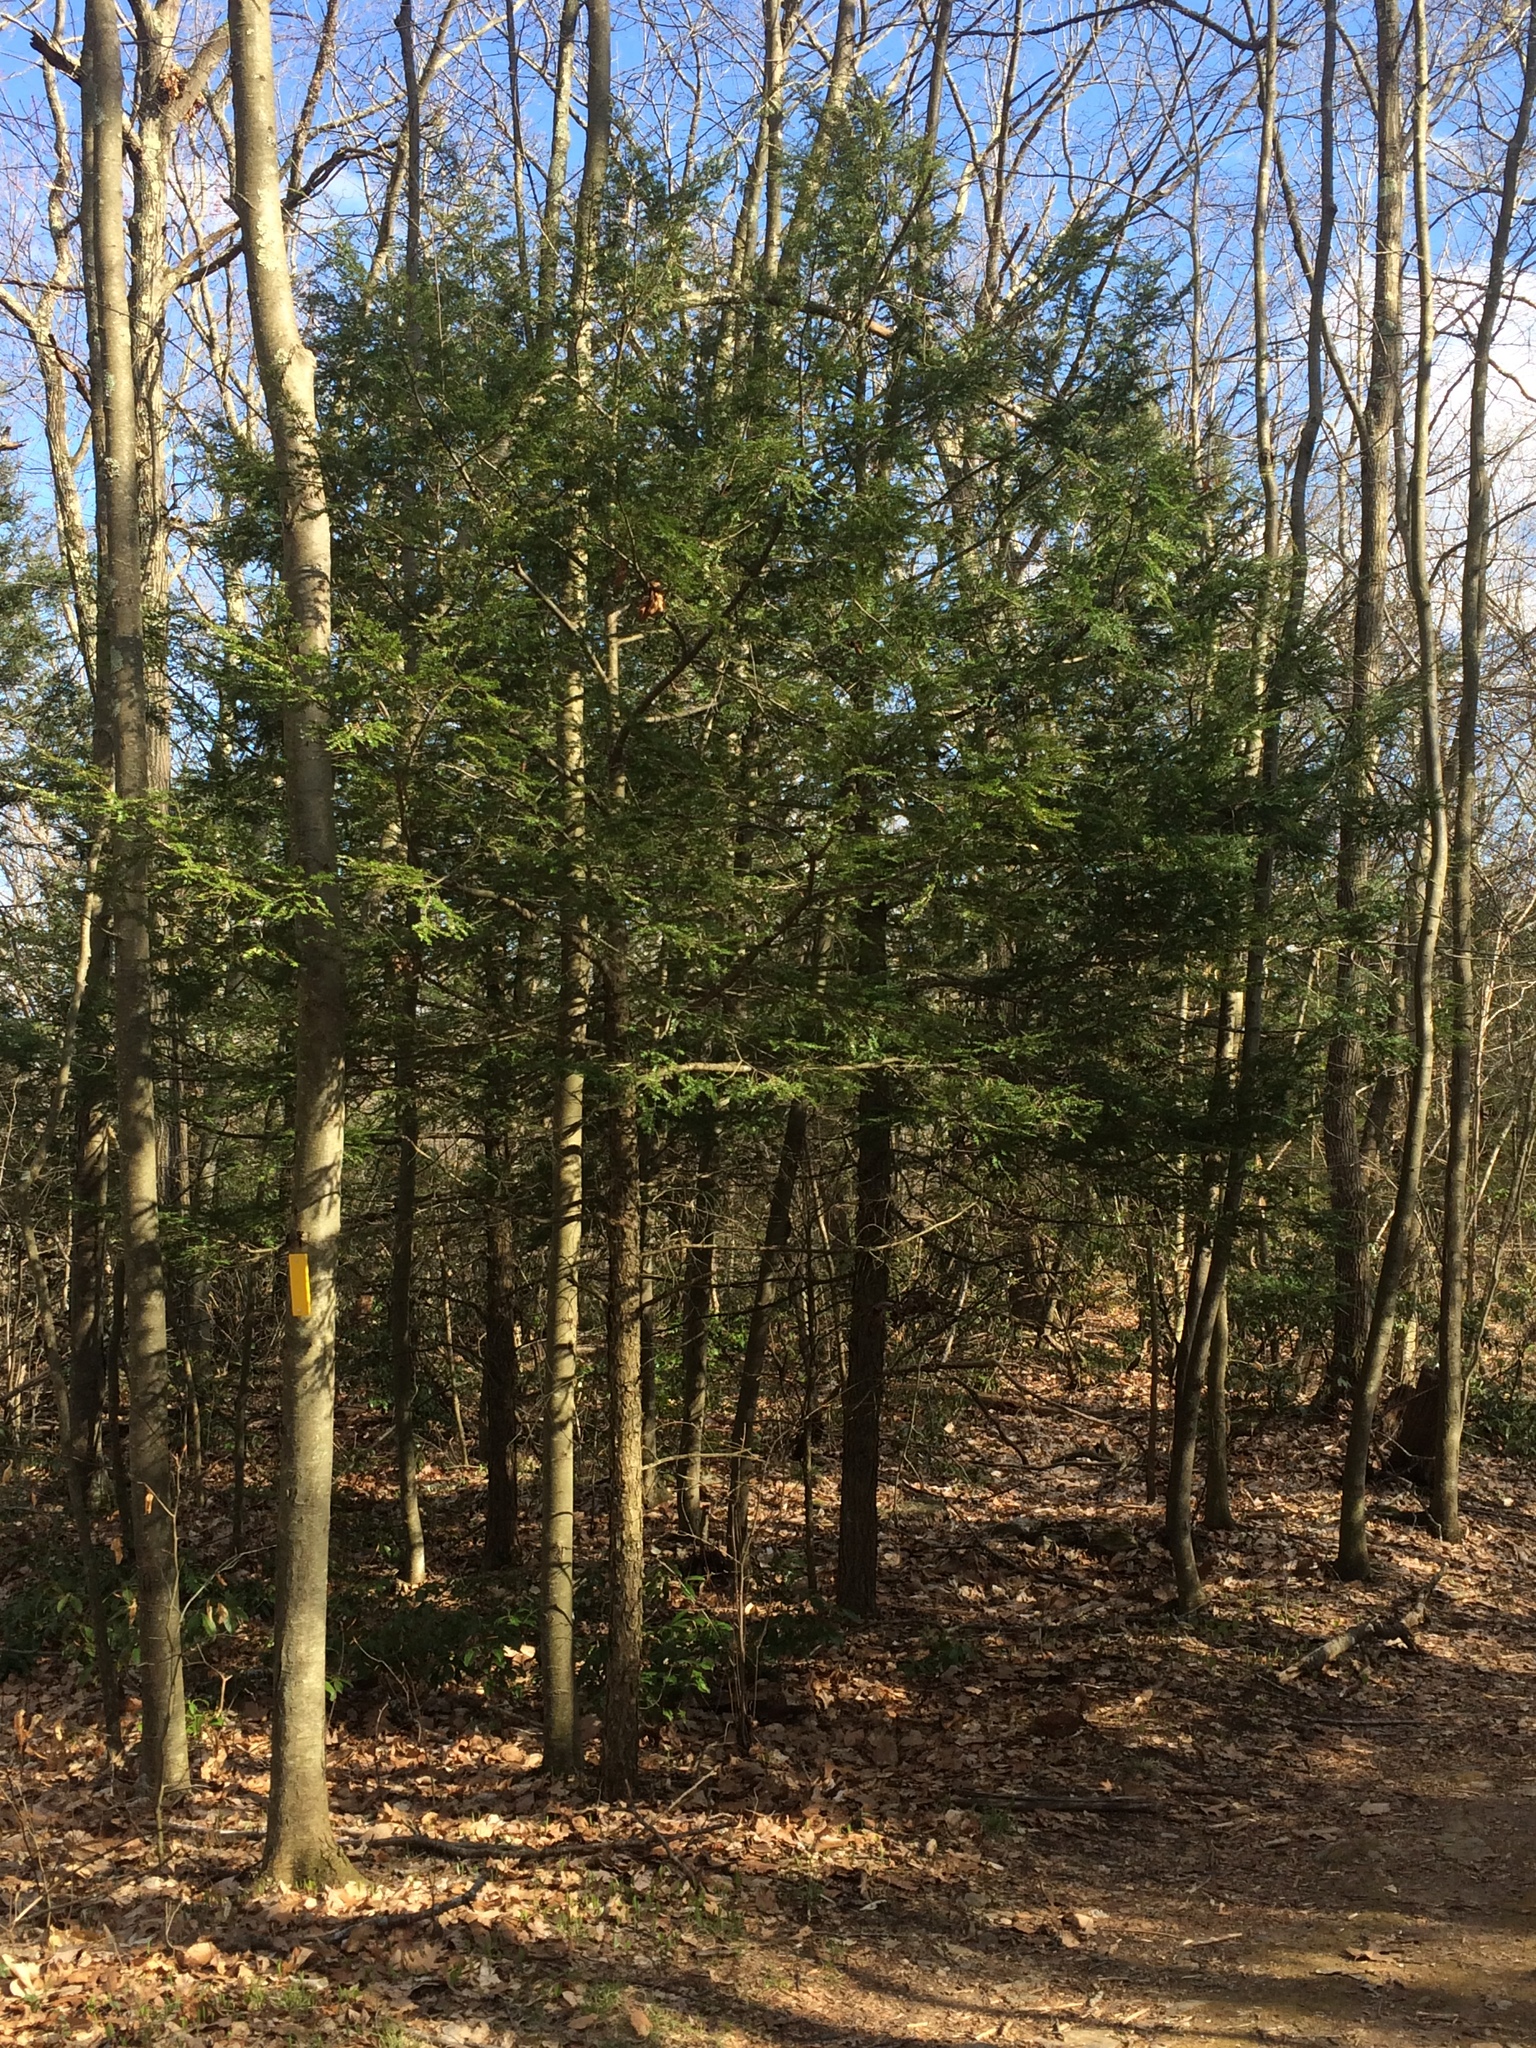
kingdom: Plantae
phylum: Tracheophyta
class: Pinopsida
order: Pinales
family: Pinaceae
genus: Tsuga
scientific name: Tsuga canadensis
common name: Eastern hemlock
